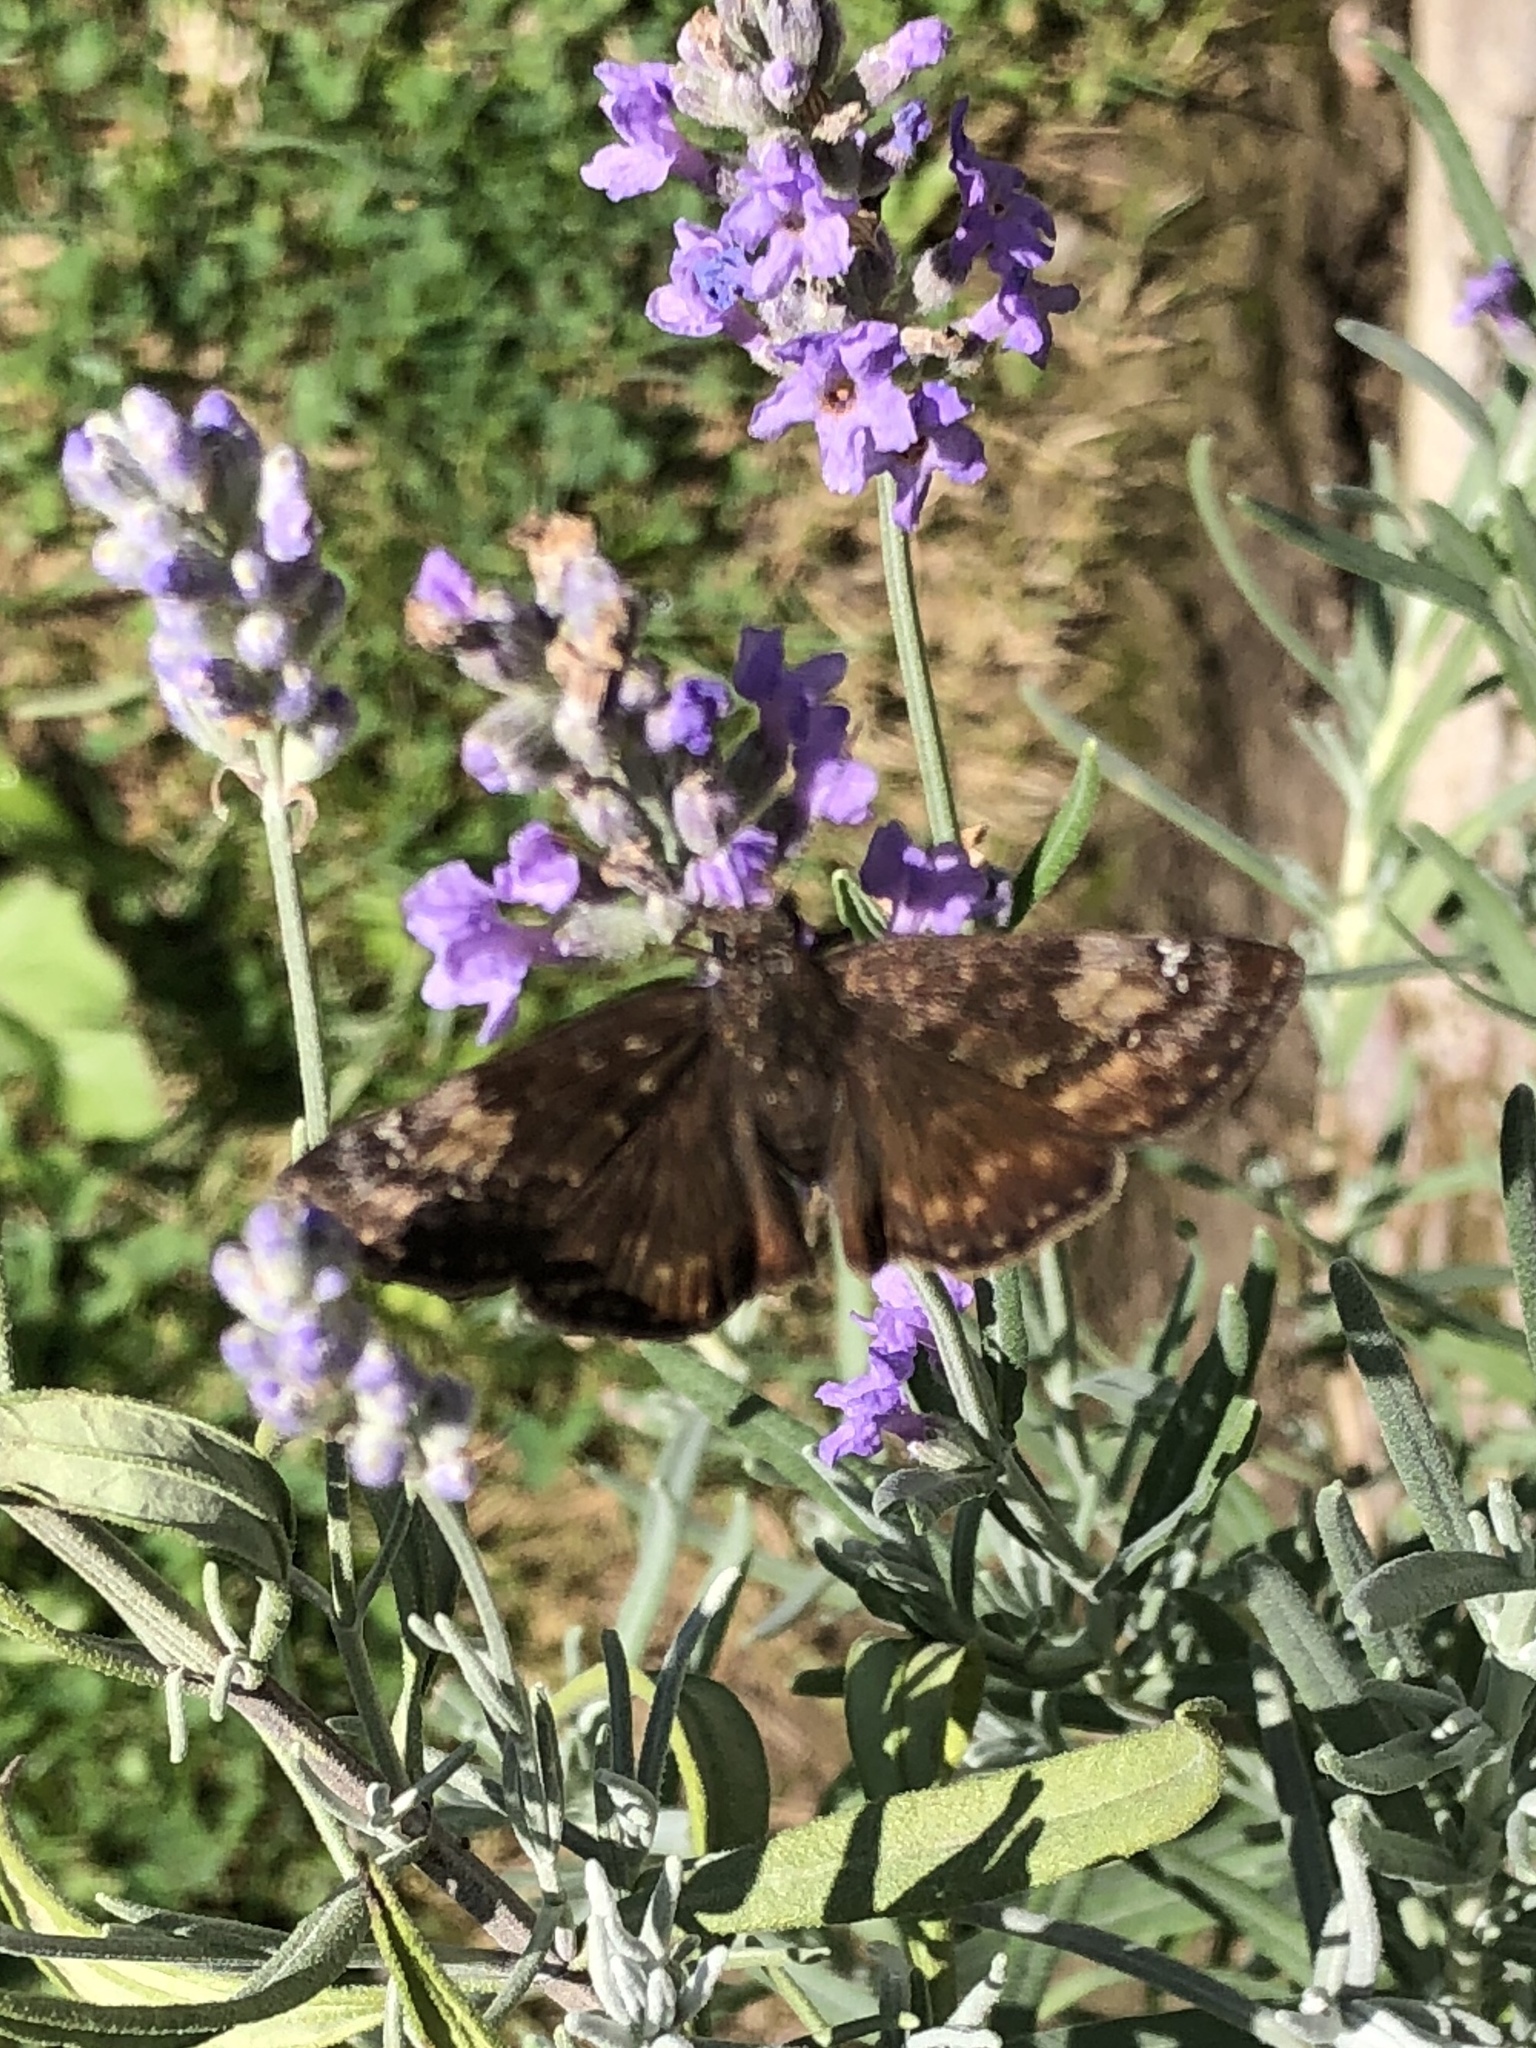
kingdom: Animalia
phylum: Arthropoda
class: Insecta
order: Lepidoptera
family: Hesperiidae
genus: Erynnis
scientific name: Erynnis baptisiae
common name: Wild indigo duskywing
